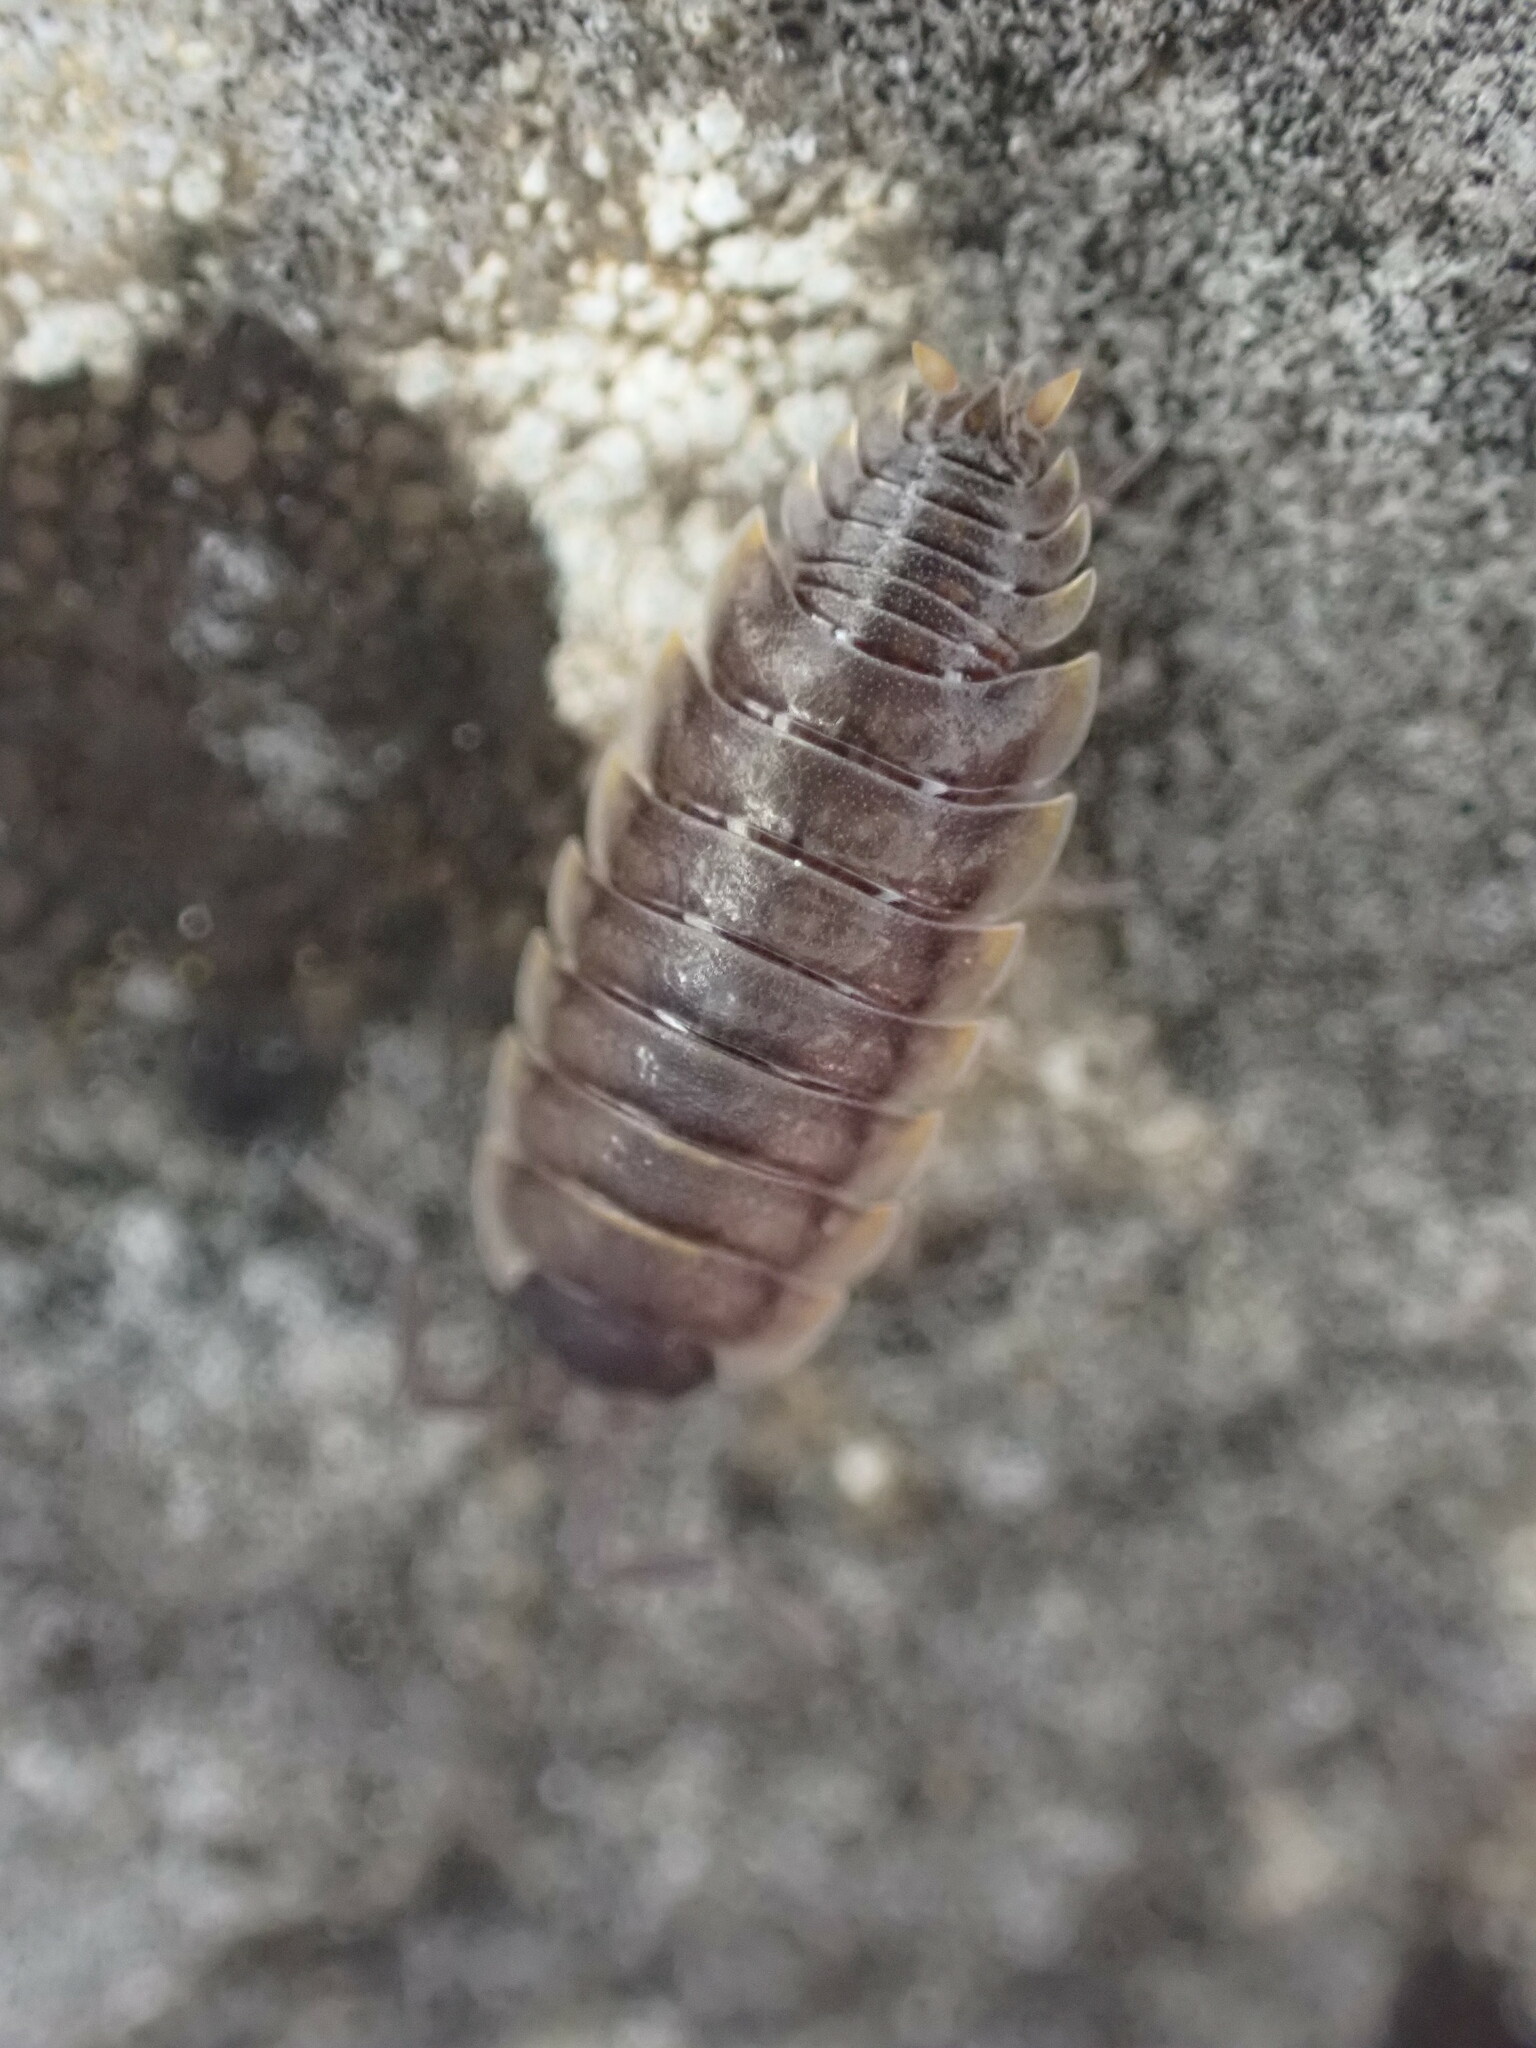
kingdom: Animalia
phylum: Arthropoda
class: Malacostraca
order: Isopoda
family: Porcellionidae
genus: Porcellio
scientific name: Porcellio orarum
